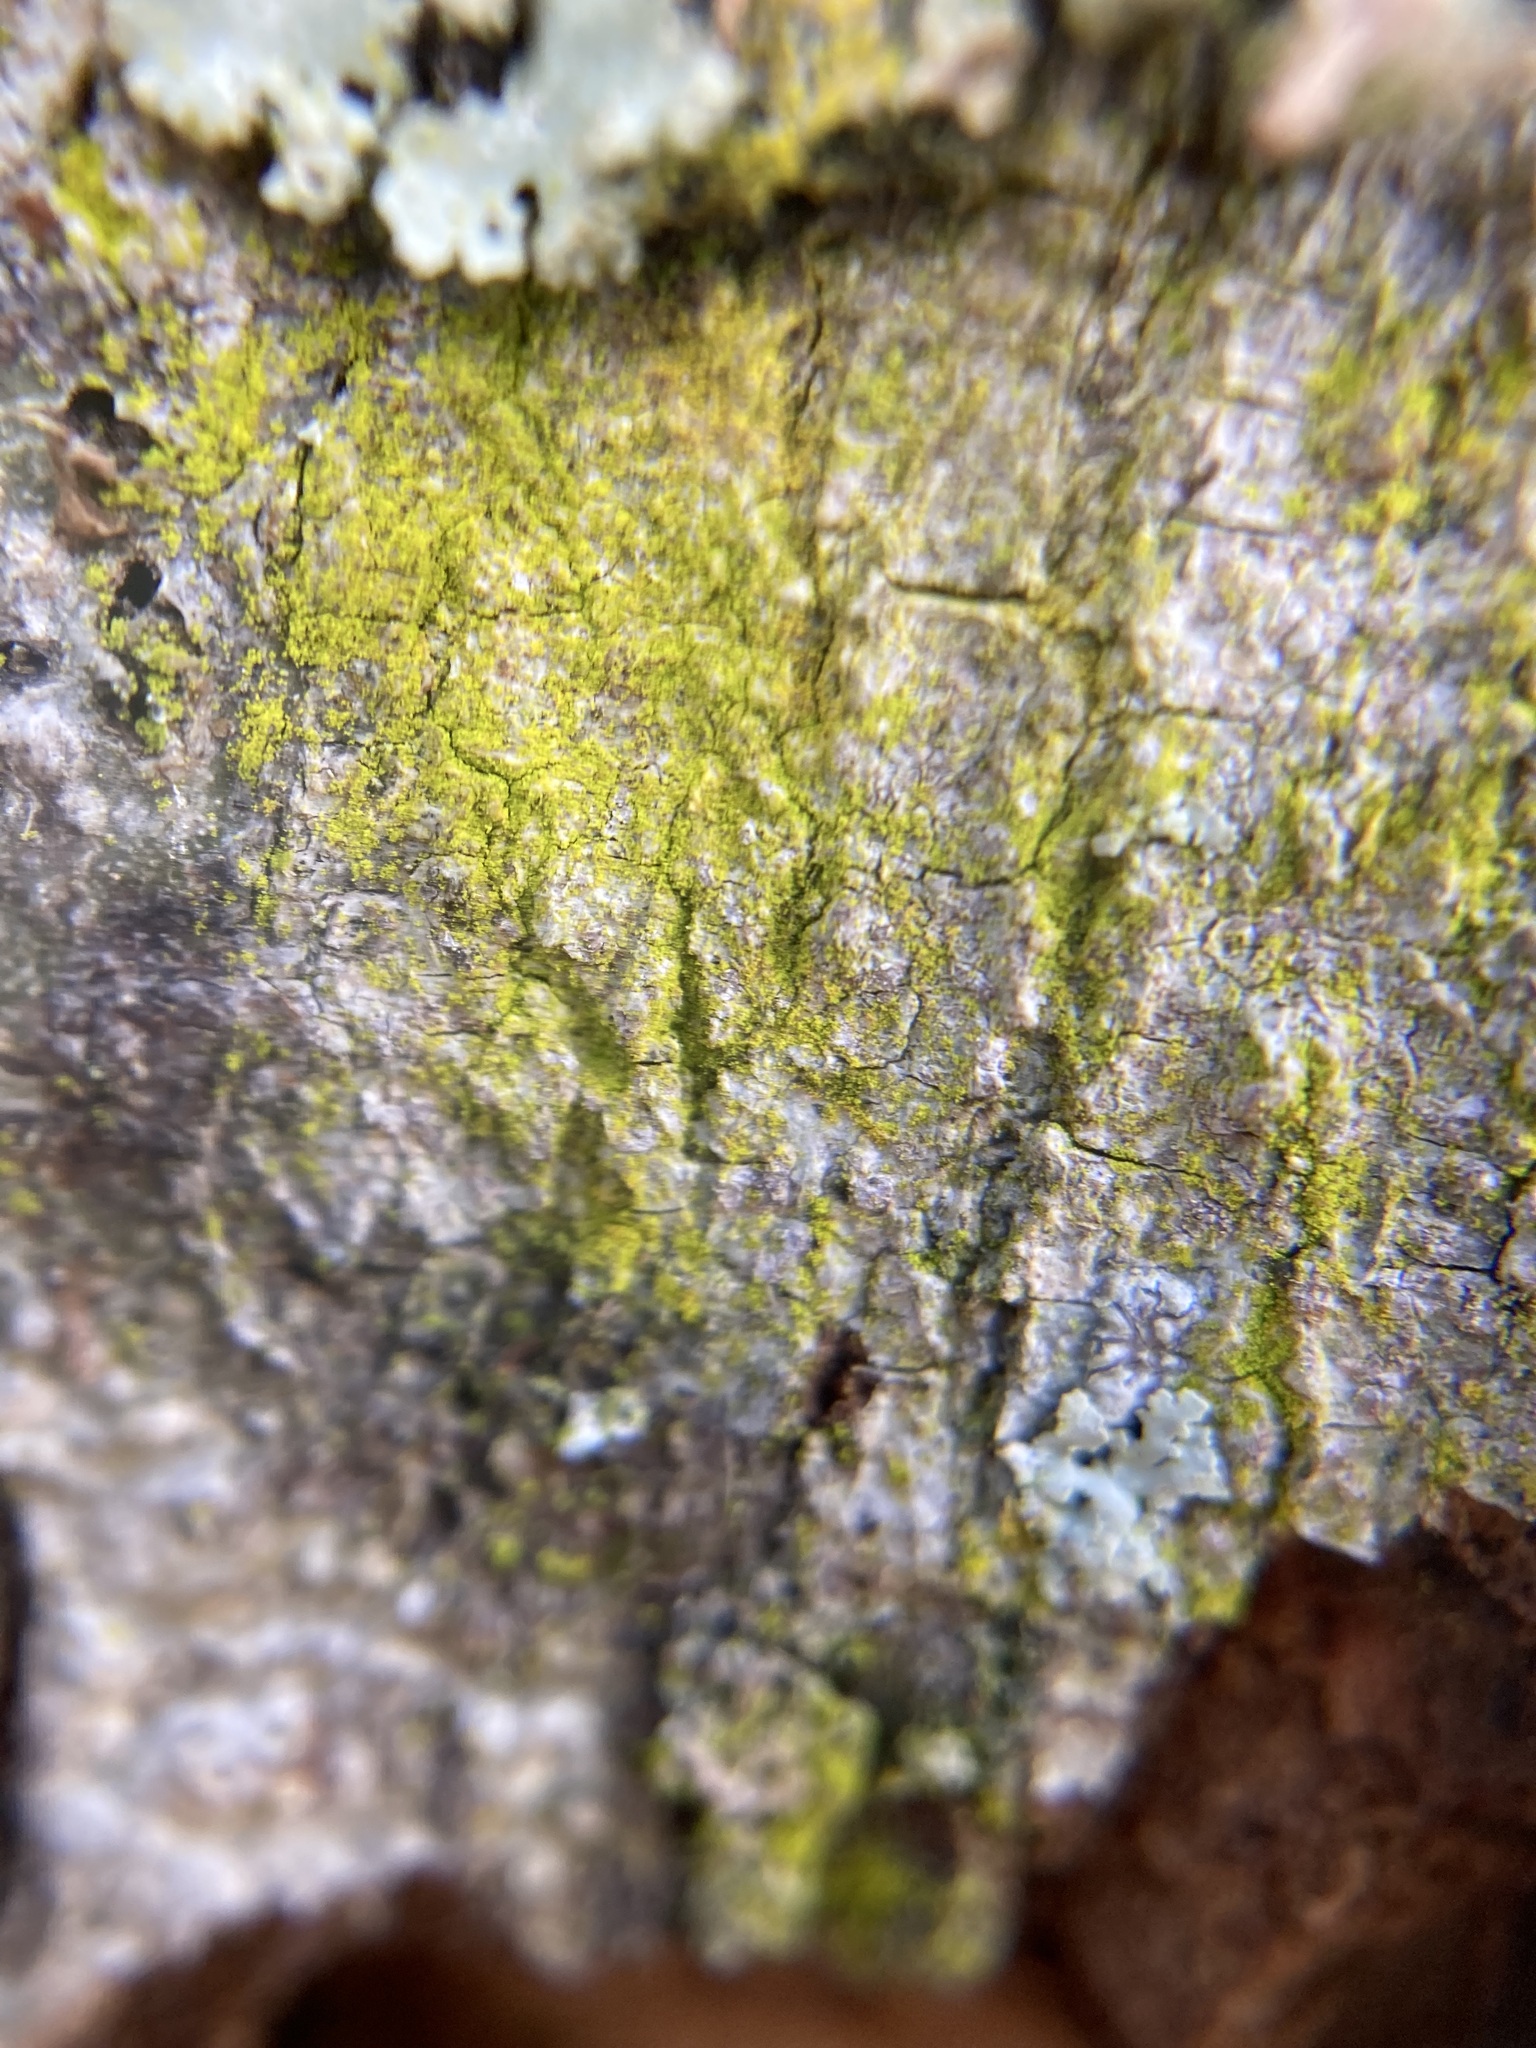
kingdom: Fungi
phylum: Ascomycota
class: Arthoniomycetes
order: Arthoniales
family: Chrysotrichaceae
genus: Chrysothrix
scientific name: Chrysothrix xanthina
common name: Common gold-dust
